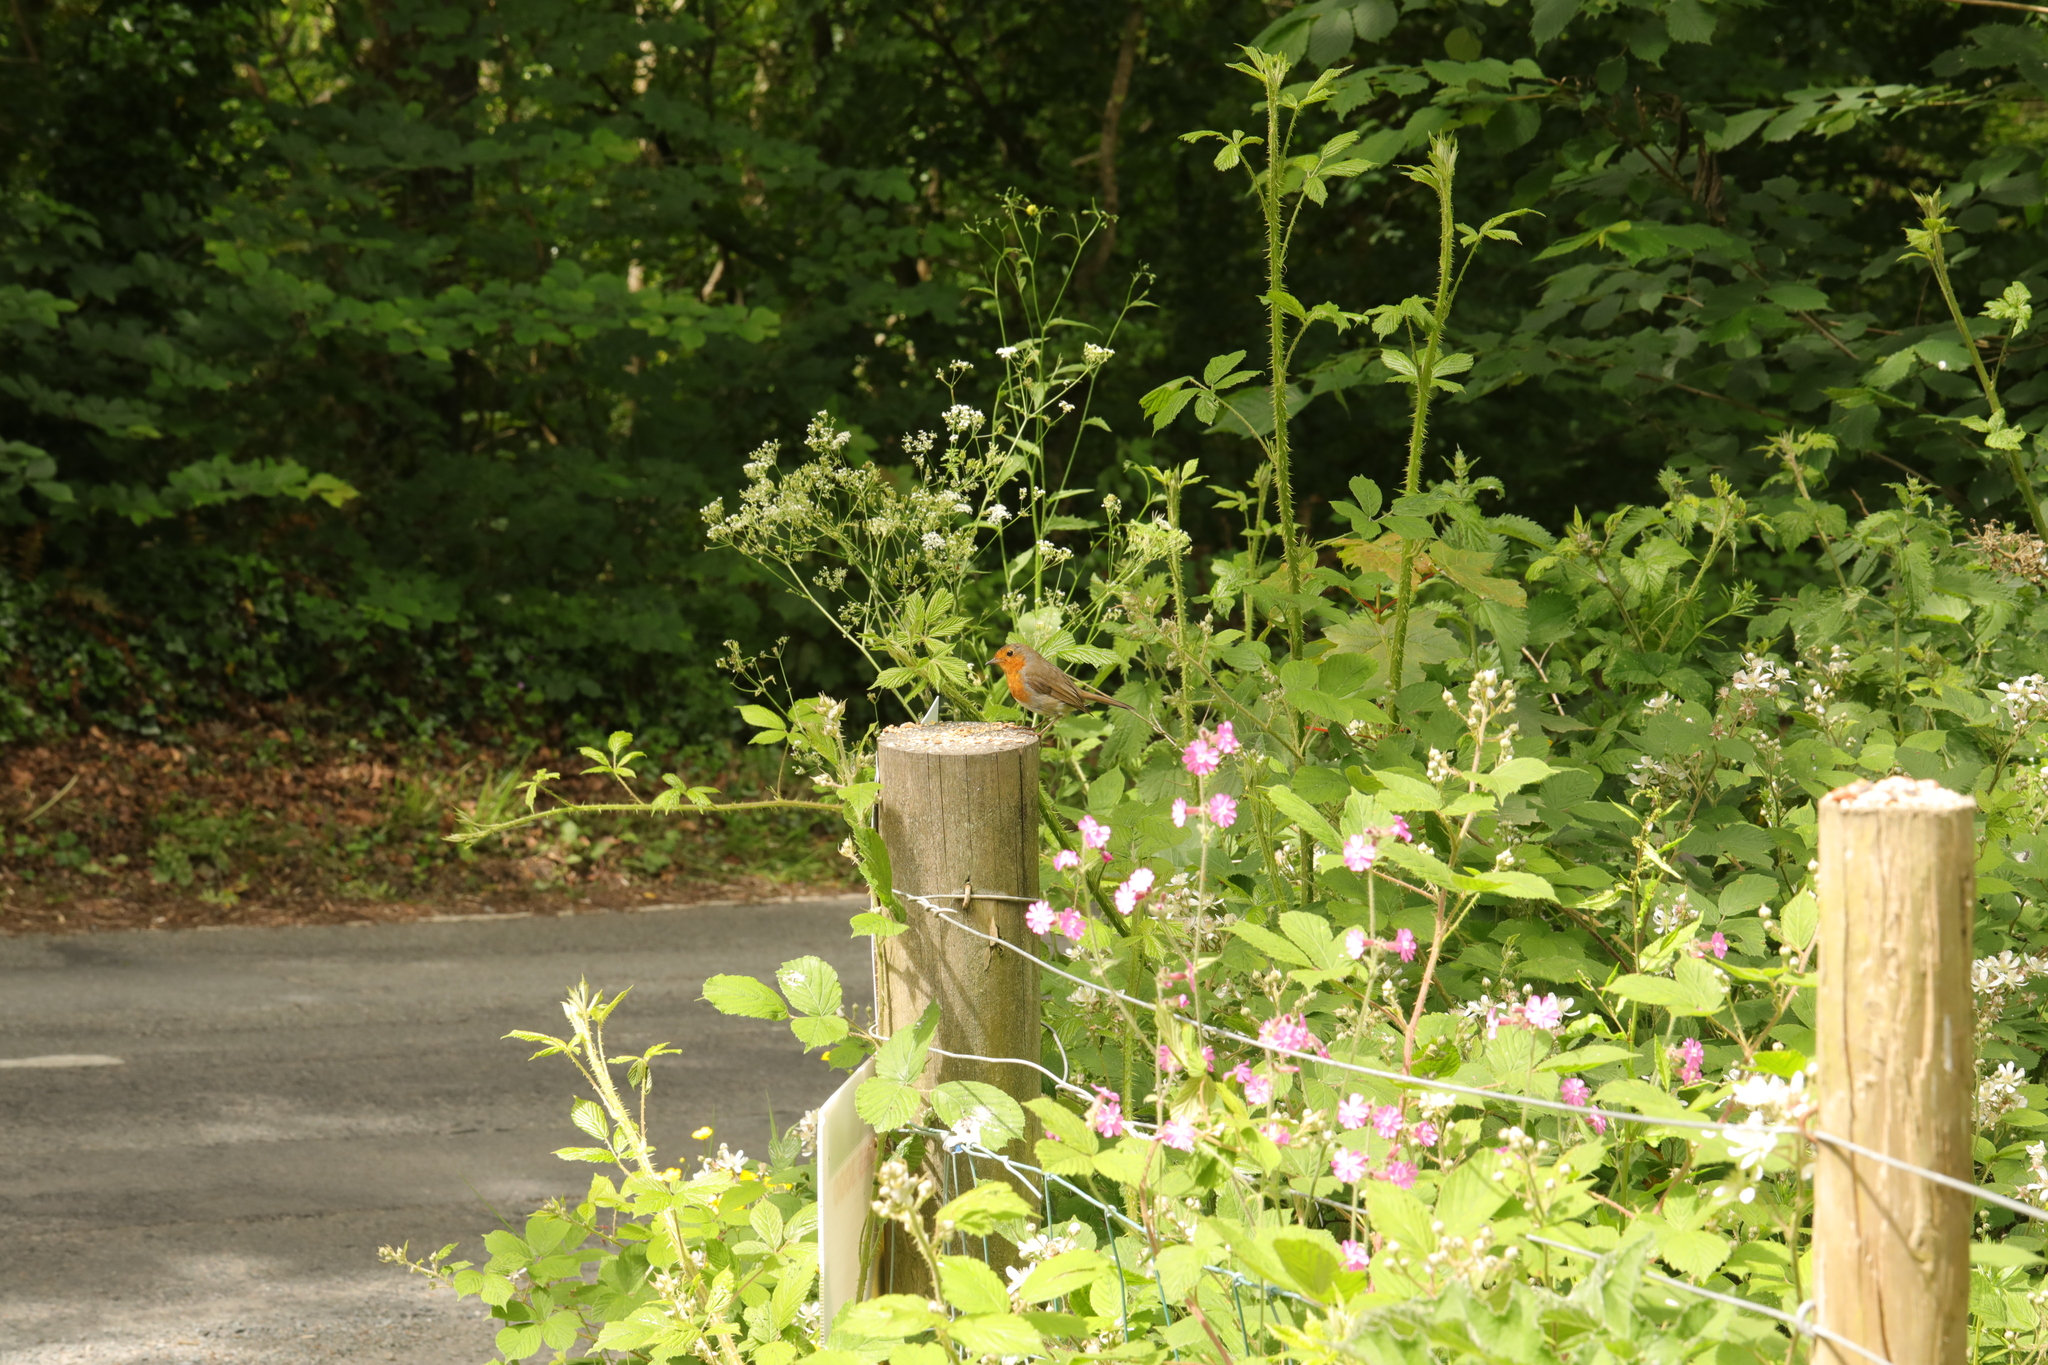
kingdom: Animalia
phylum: Chordata
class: Aves
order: Passeriformes
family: Muscicapidae
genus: Erithacus
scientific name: Erithacus rubecula
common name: European robin
